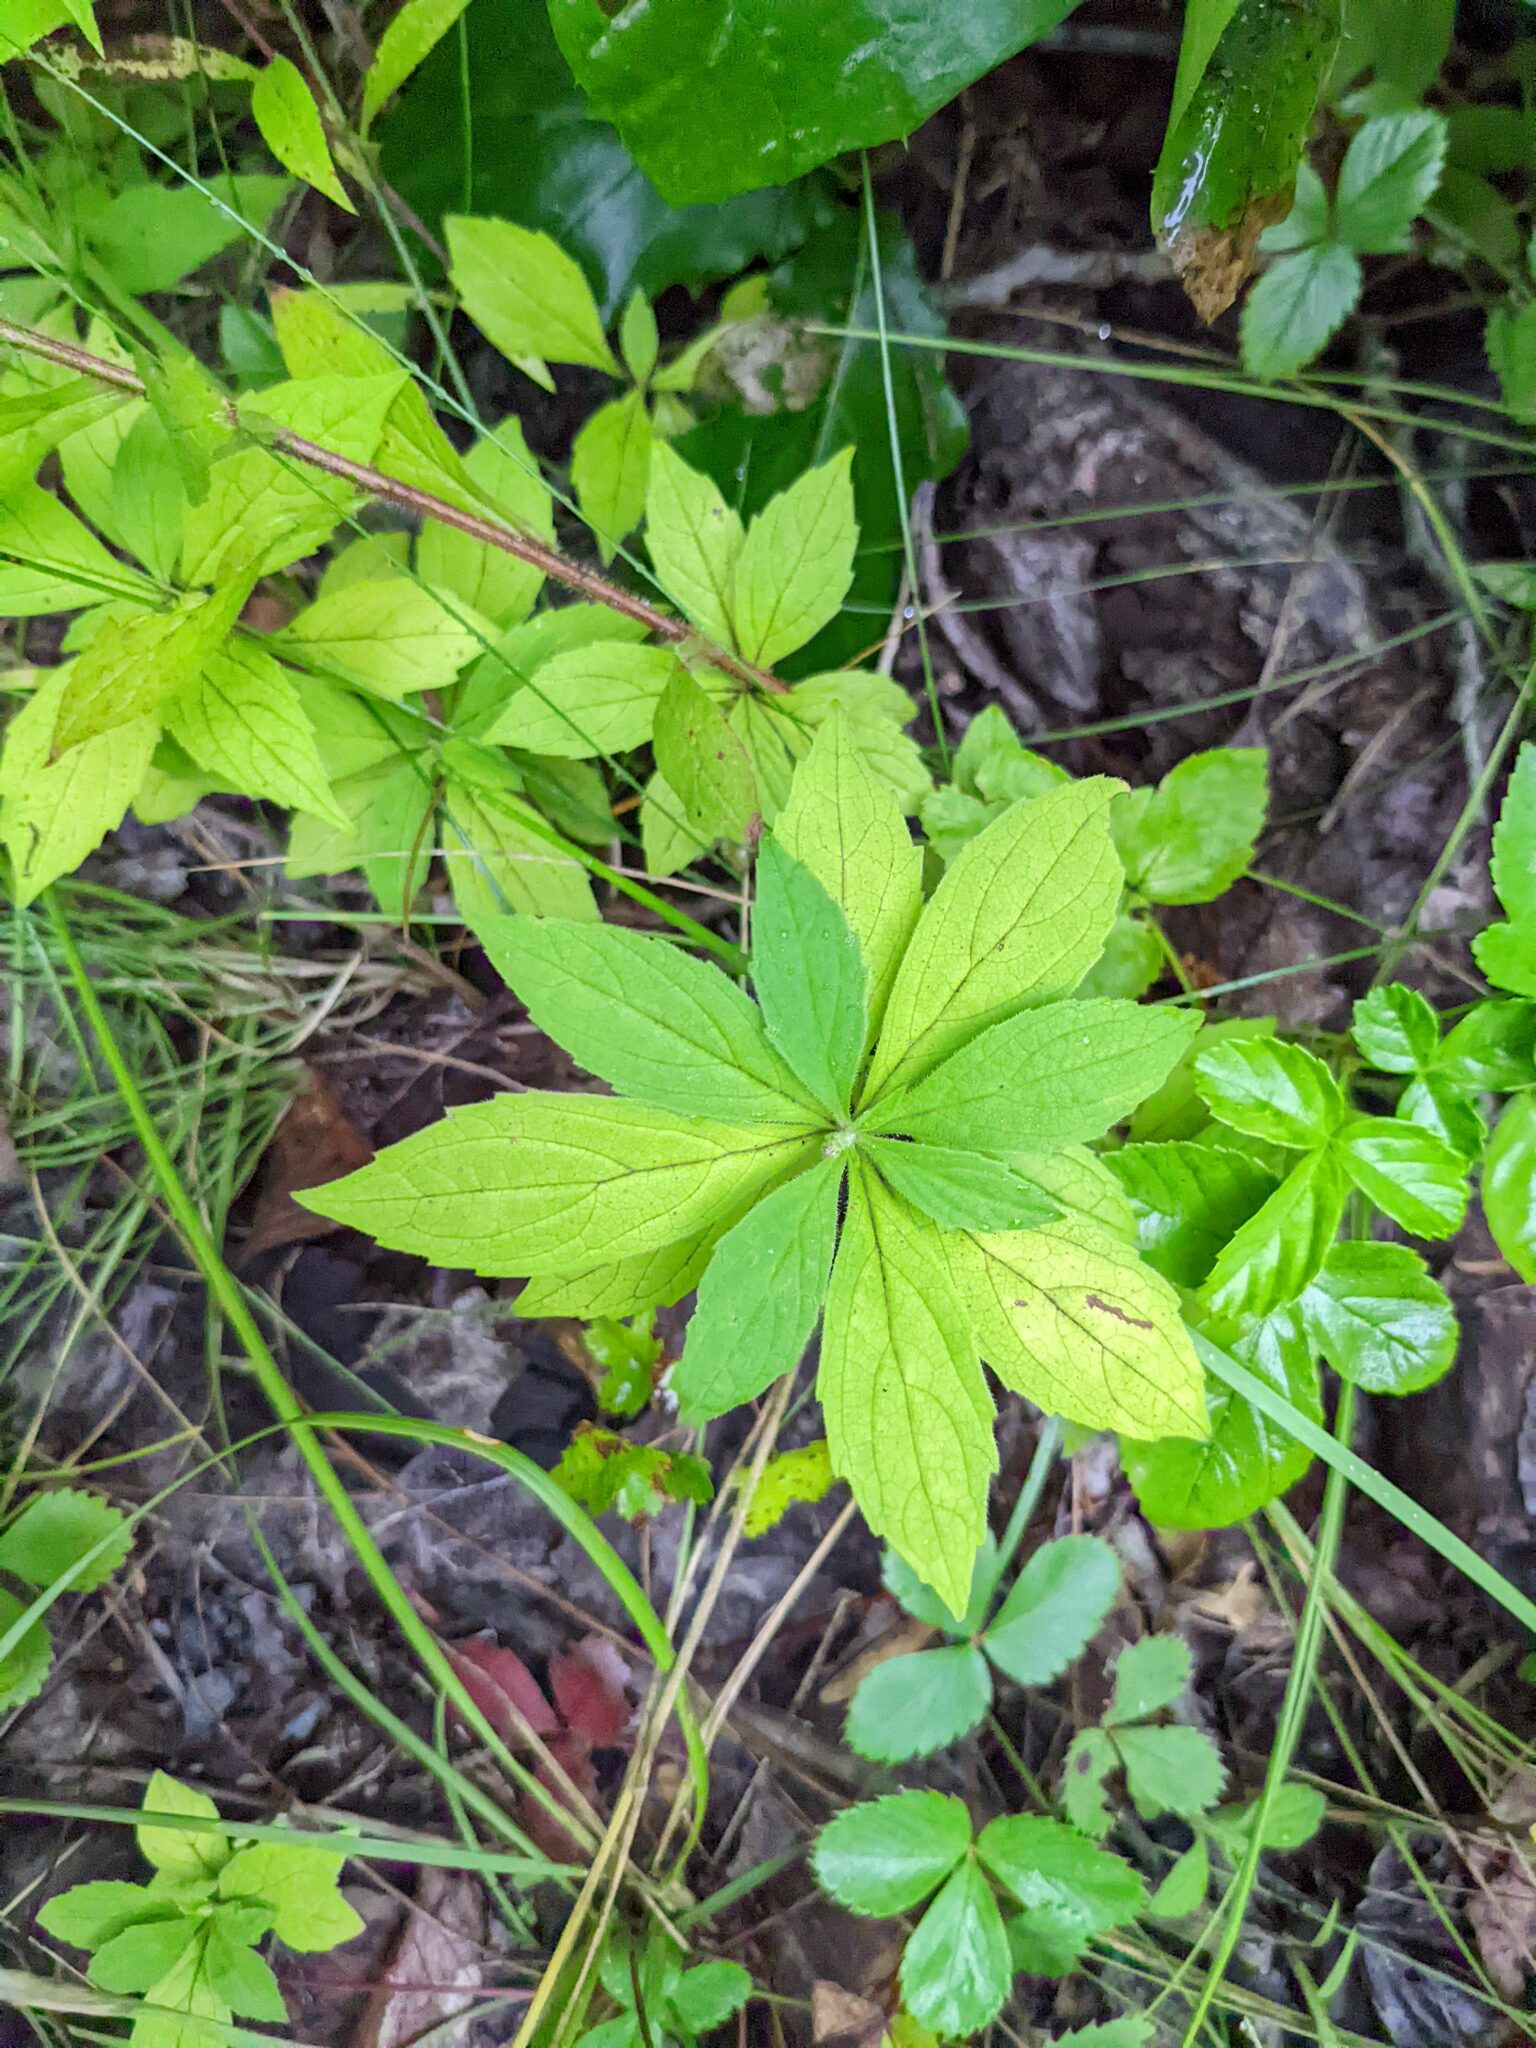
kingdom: Plantae
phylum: Tracheophyta
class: Magnoliopsida
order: Asterales
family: Asteraceae
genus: Oclemena
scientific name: Oclemena acuminata
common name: Mountain aster
